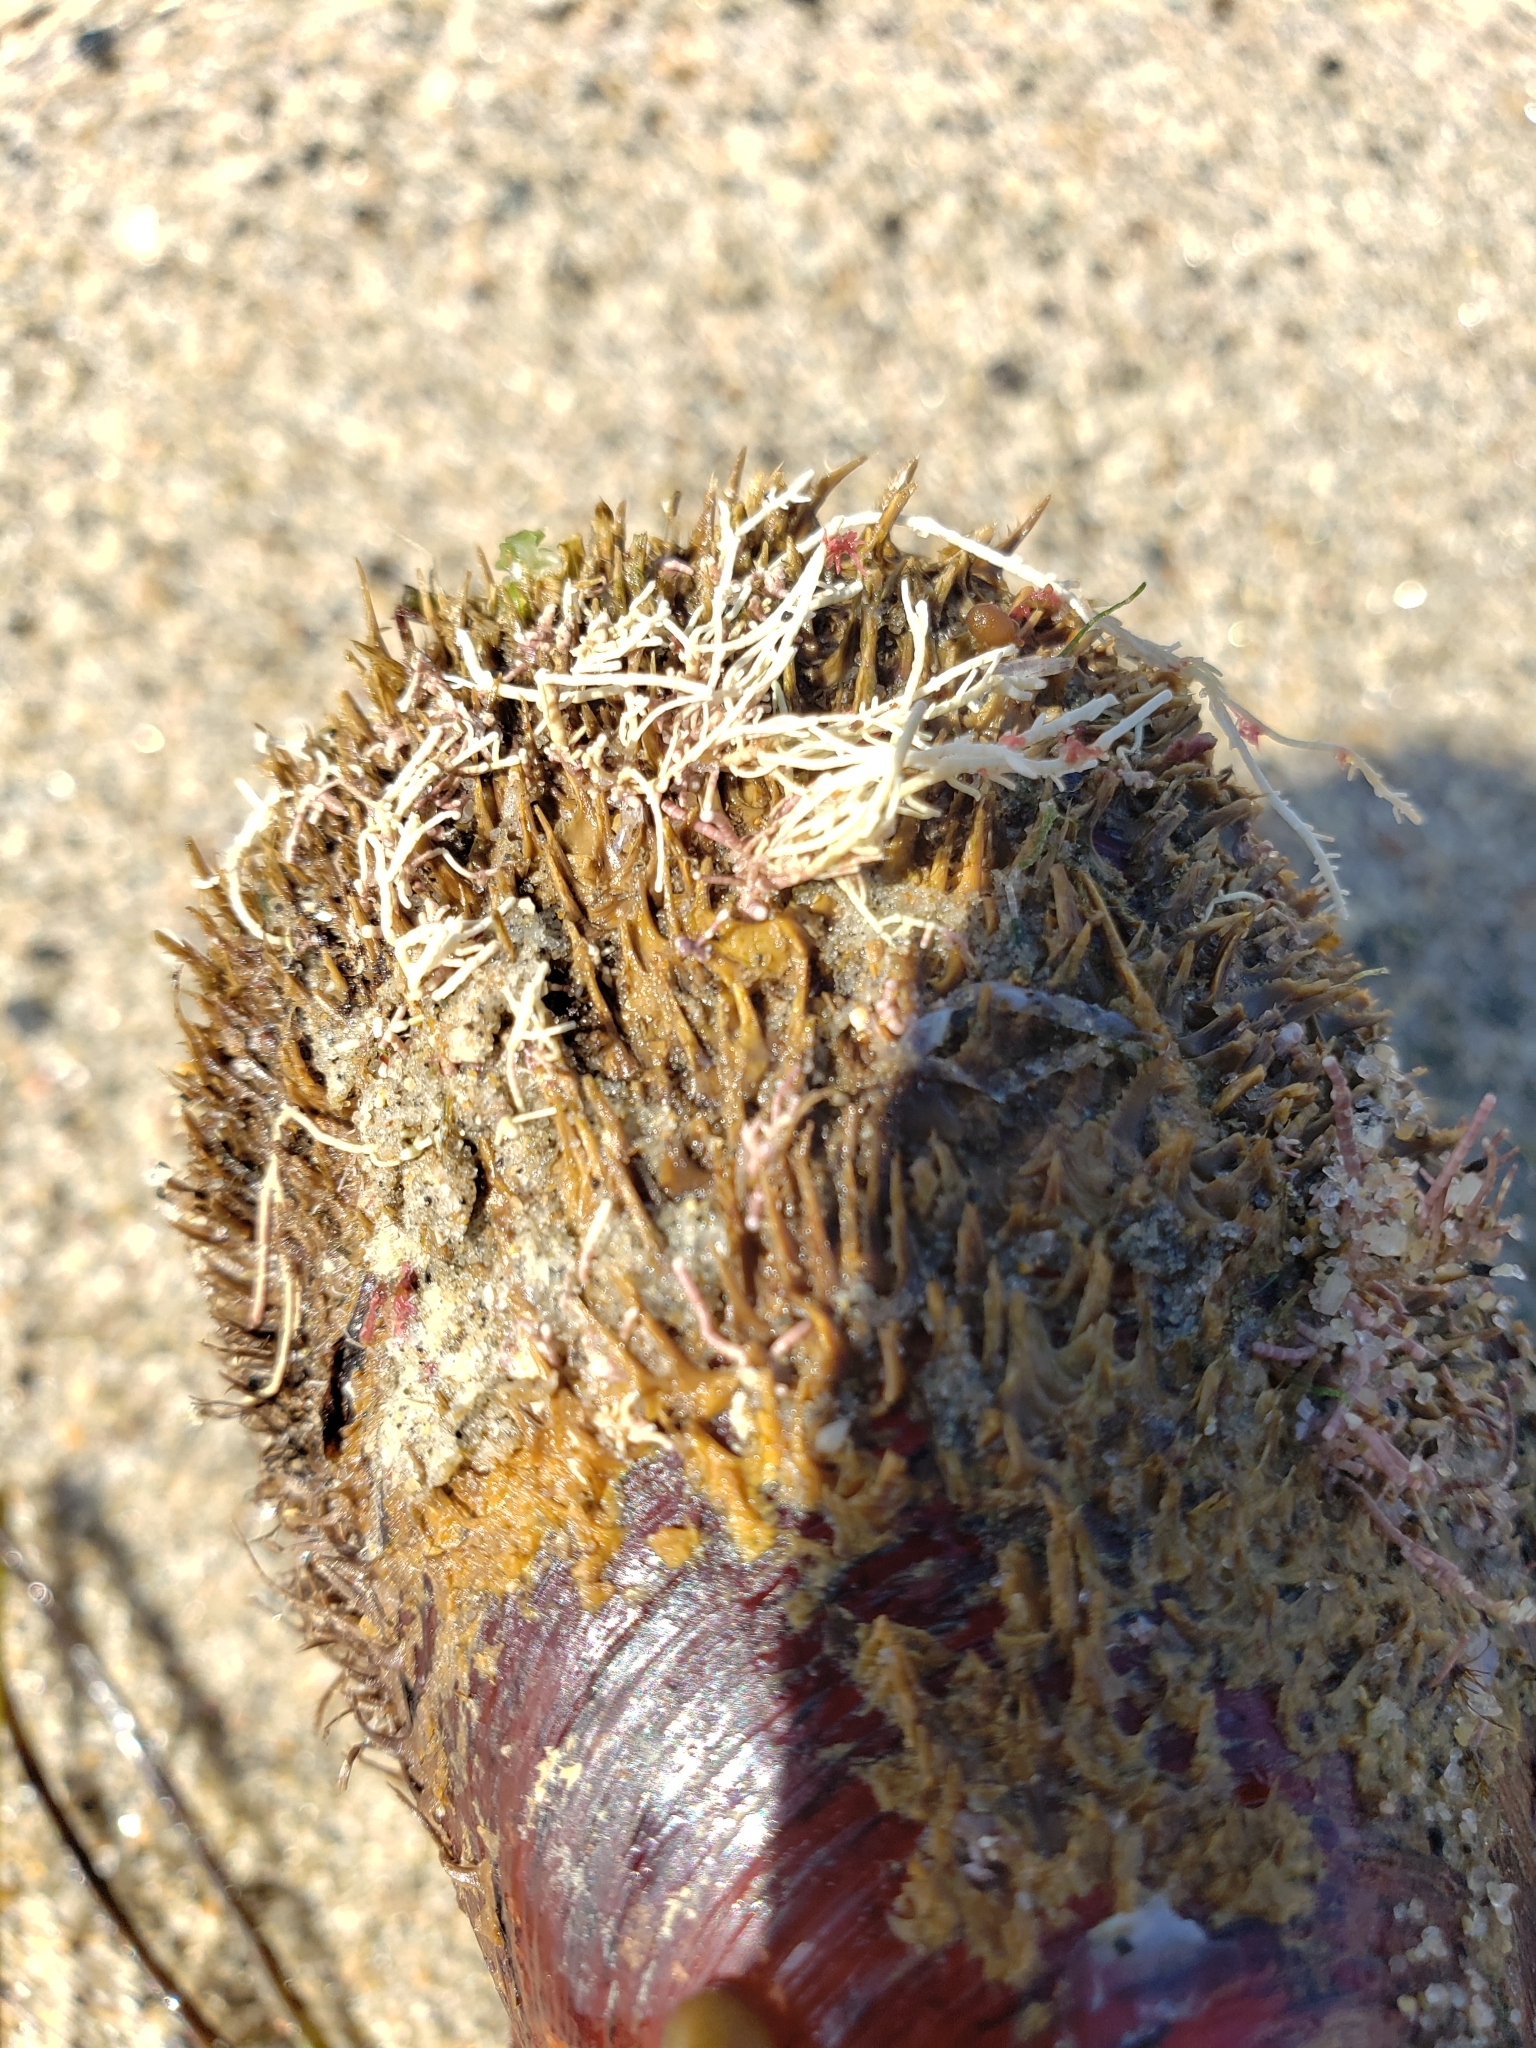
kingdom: Animalia
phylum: Mollusca
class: Bivalvia
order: Mytilida
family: Mytilidae
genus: Modiolus
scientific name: Modiolus capax
